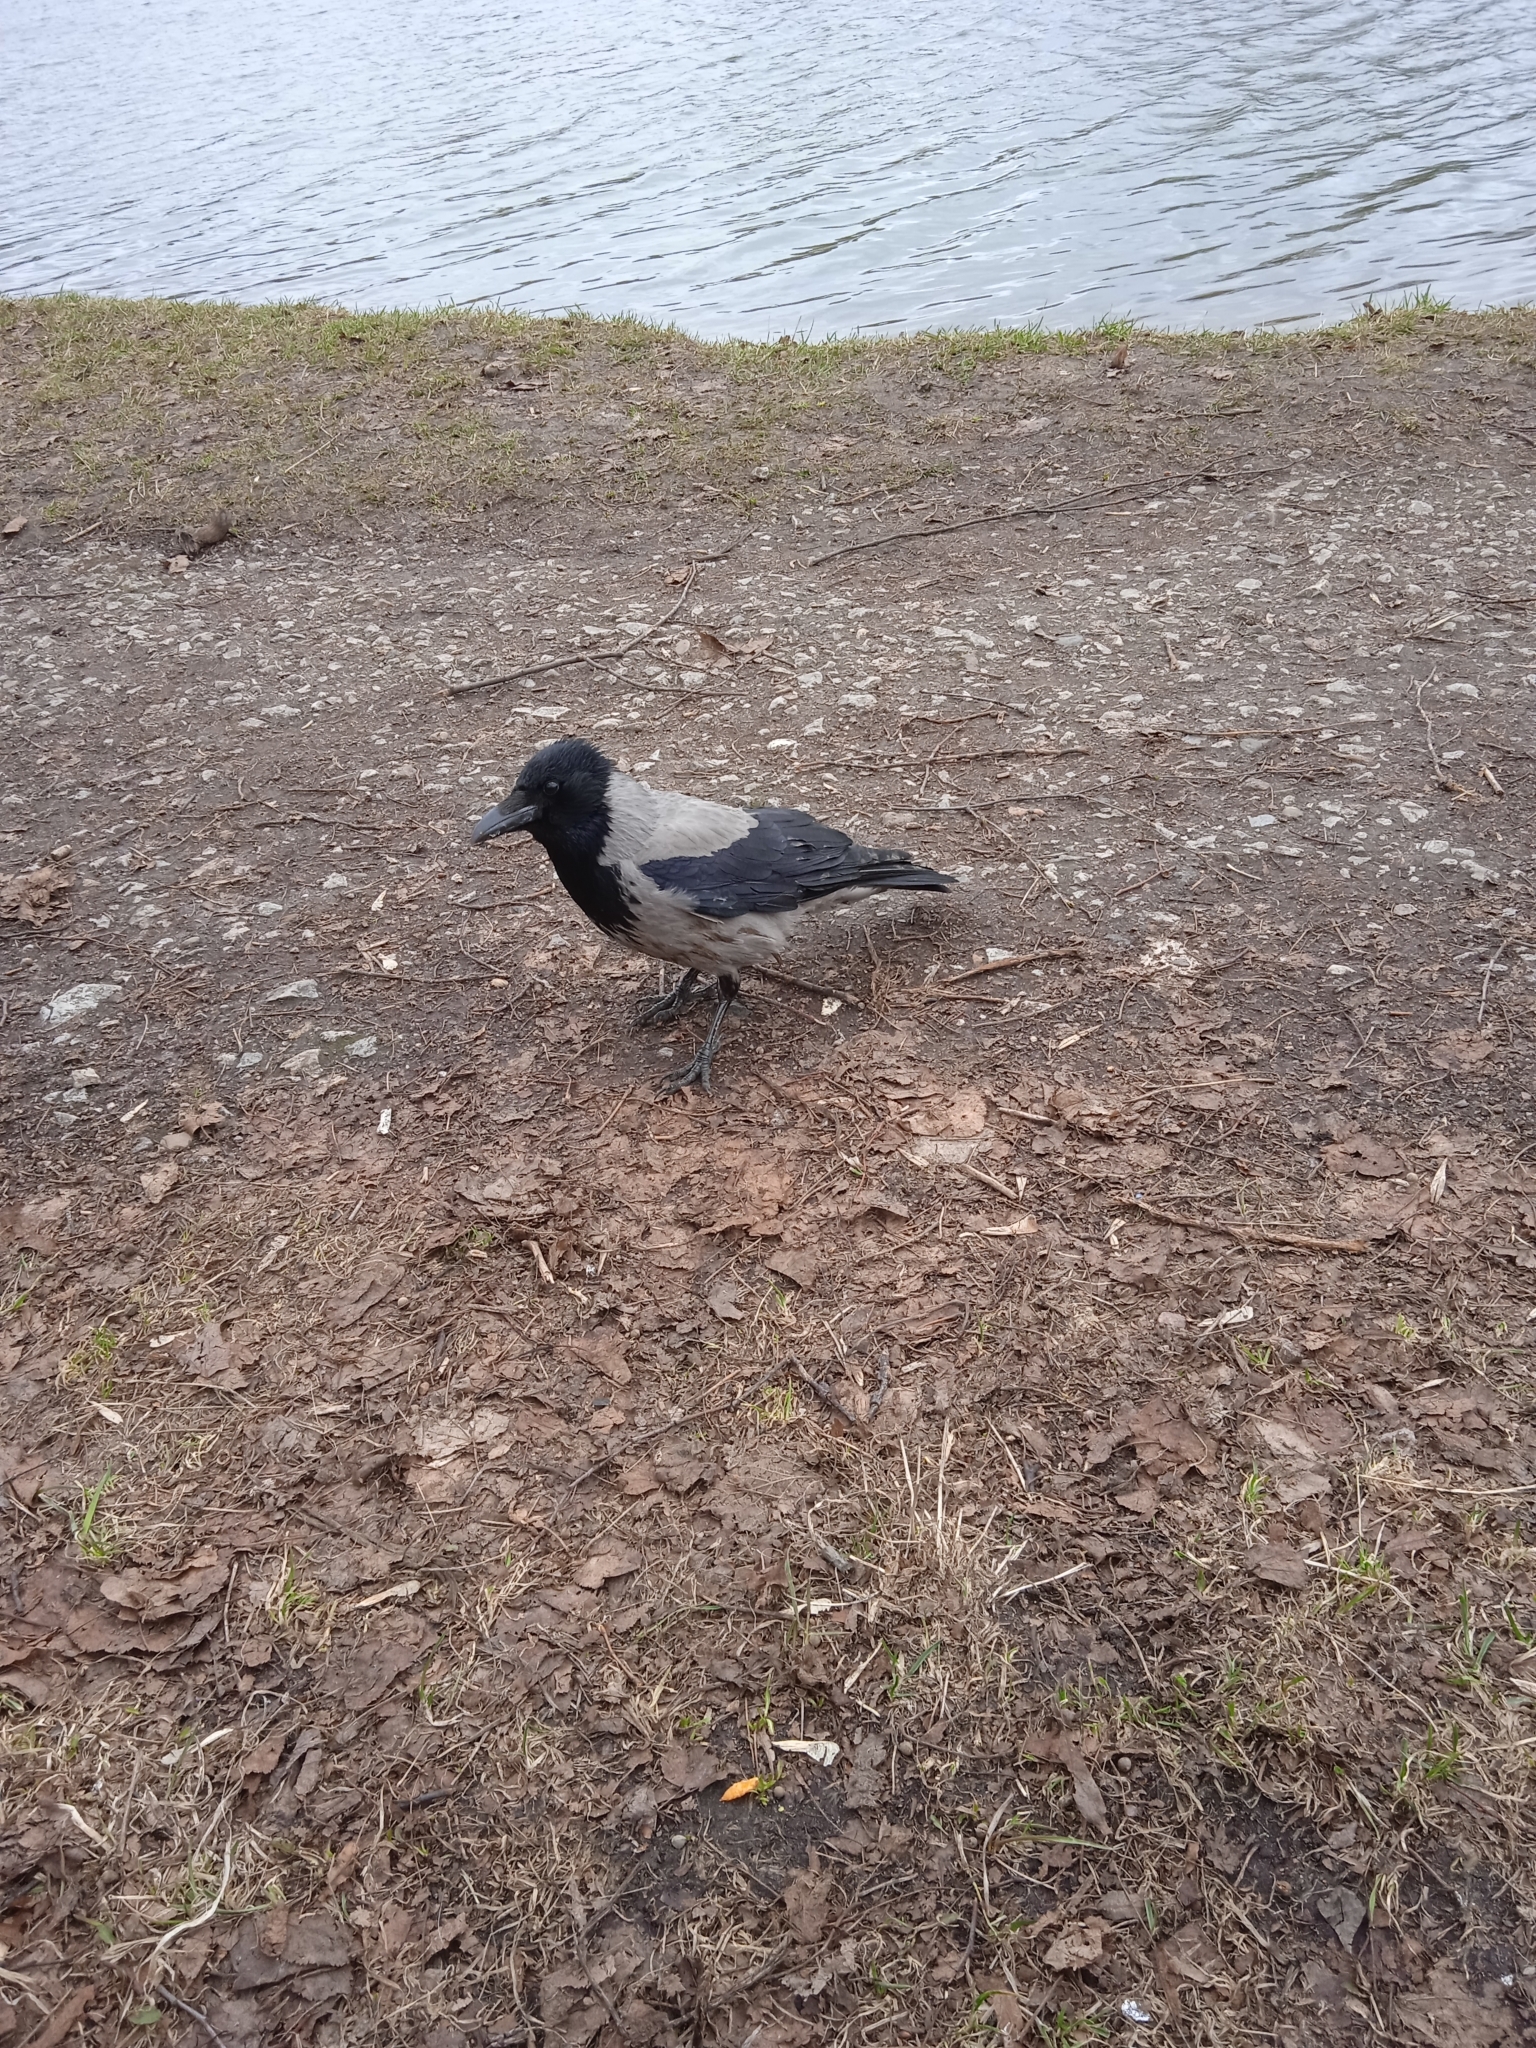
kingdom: Animalia
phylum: Chordata
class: Aves
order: Passeriformes
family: Corvidae
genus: Corvus
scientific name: Corvus cornix
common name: Hooded crow
